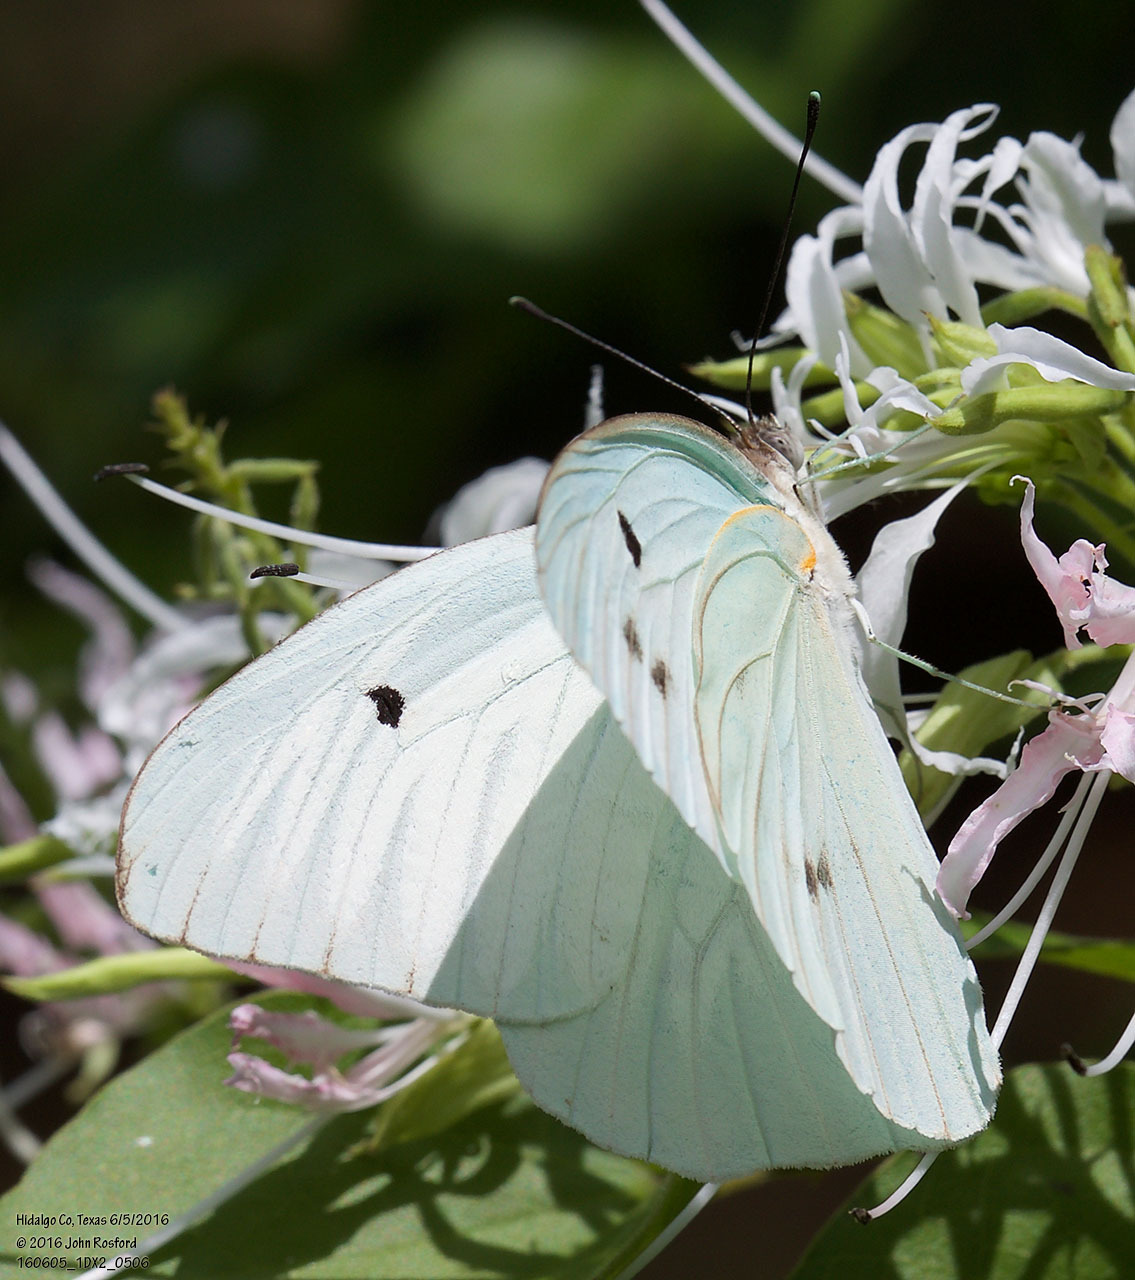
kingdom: Animalia
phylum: Arthropoda
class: Insecta
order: Lepidoptera
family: Pieridae
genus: Ganyra
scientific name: Ganyra josephina
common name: Giant white
